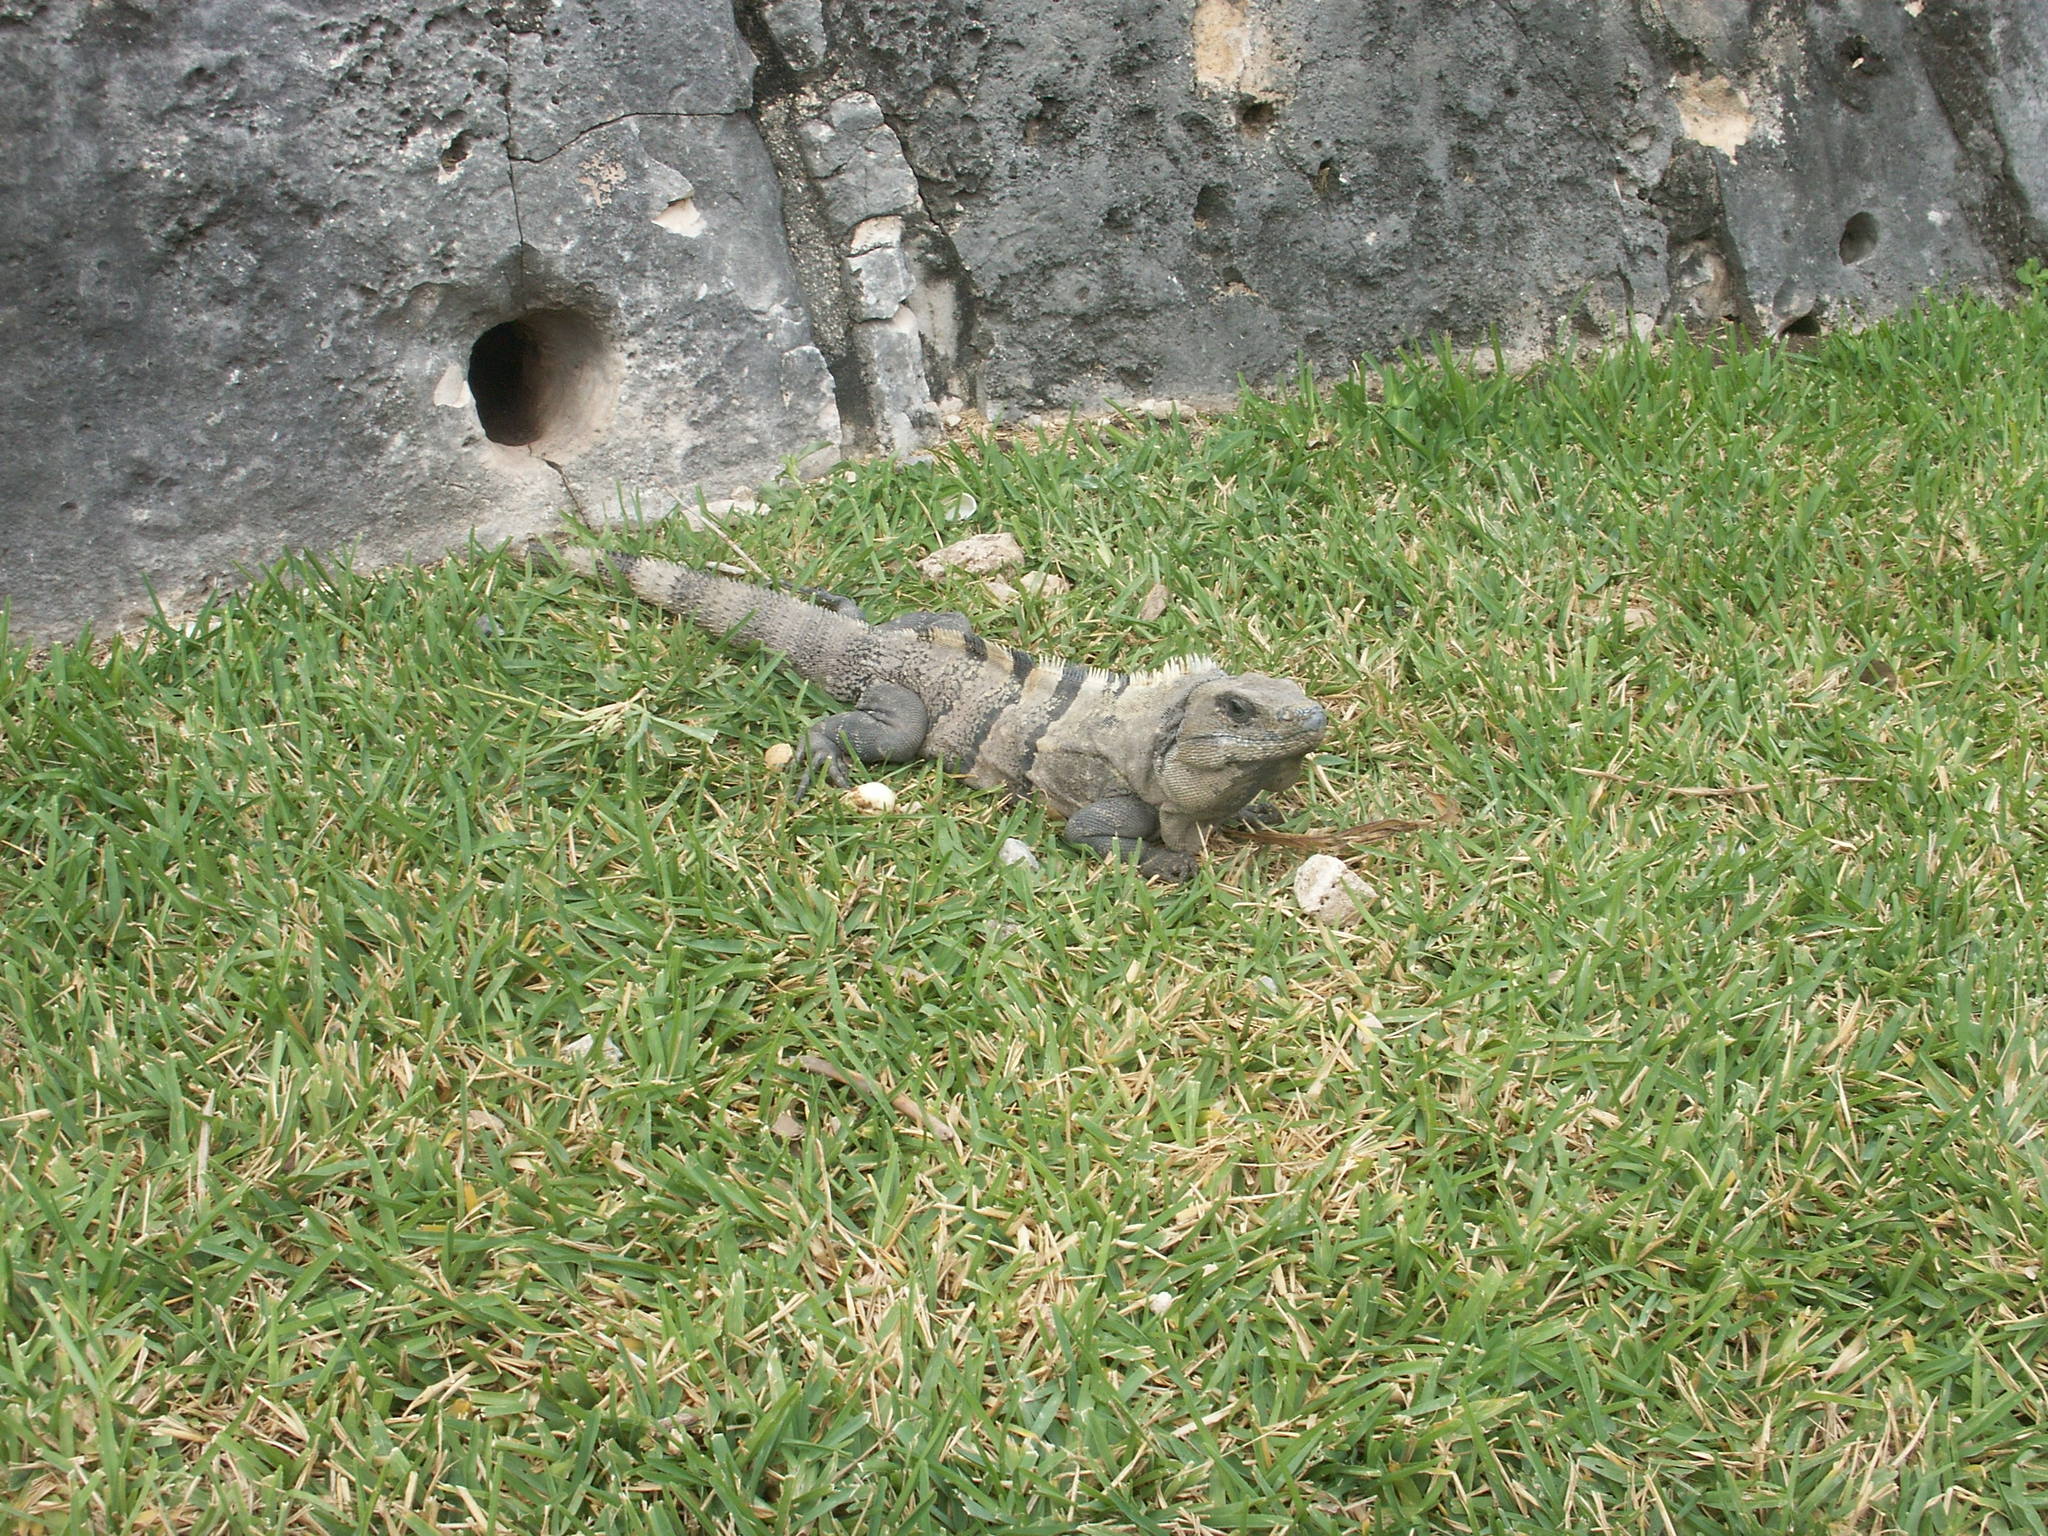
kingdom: Animalia
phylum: Chordata
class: Squamata
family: Iguanidae
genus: Ctenosaura
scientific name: Ctenosaura similis
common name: Black spiny-tailed iguana
